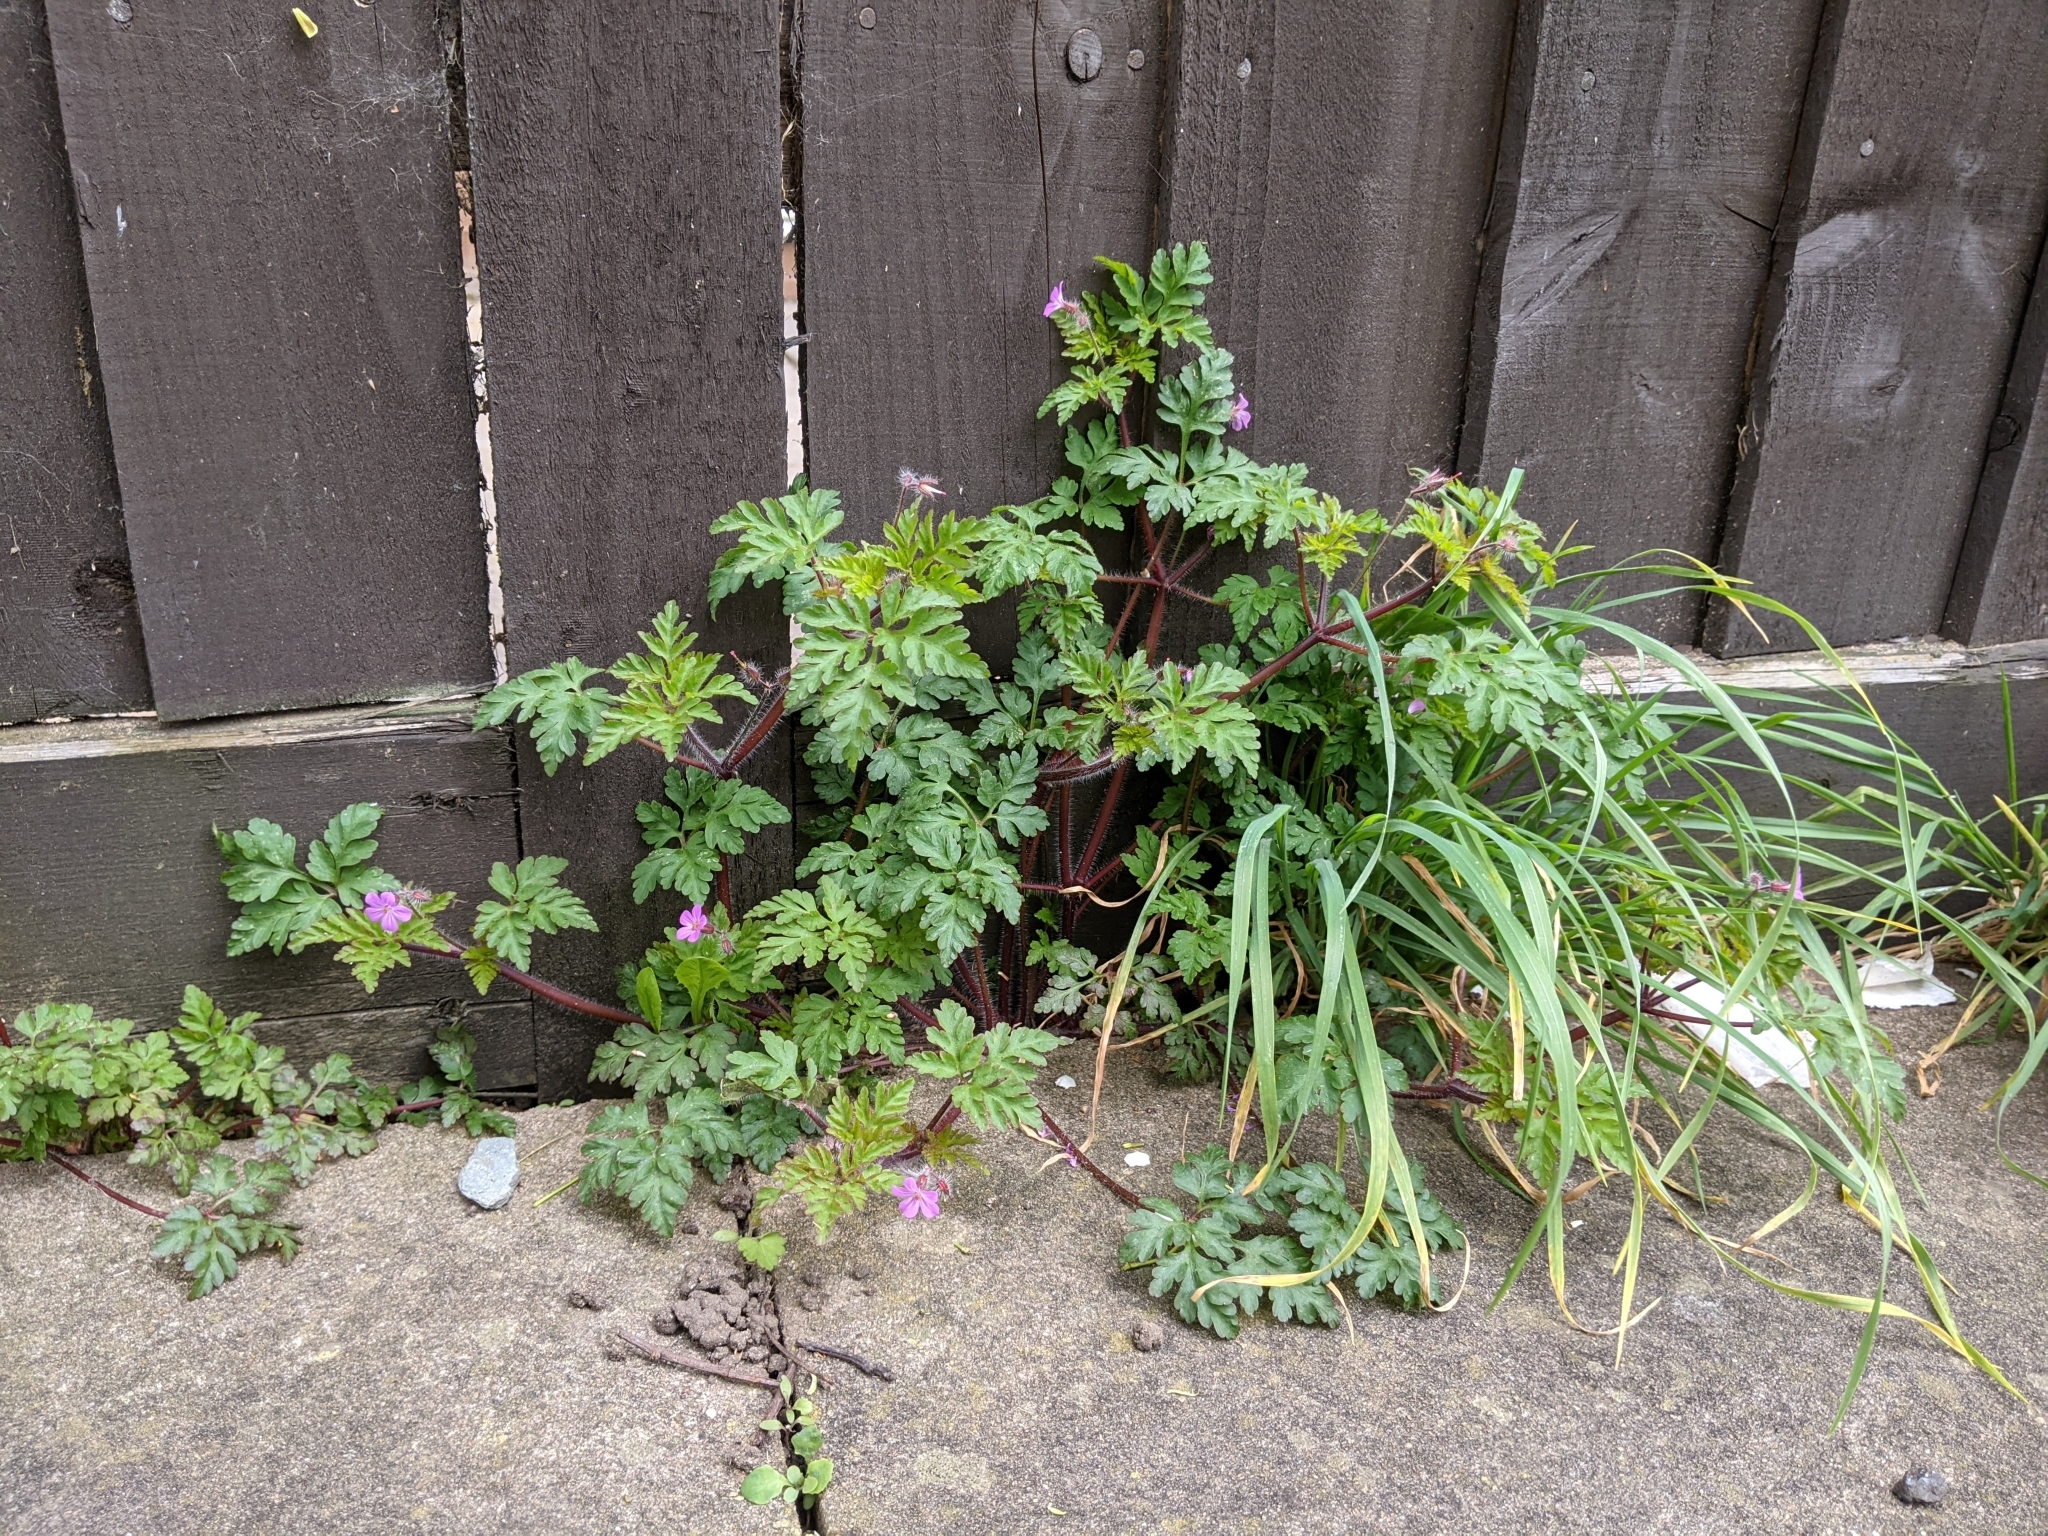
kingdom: Plantae
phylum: Tracheophyta
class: Magnoliopsida
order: Geraniales
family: Geraniaceae
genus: Geranium
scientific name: Geranium robertianum
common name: Herb-robert
